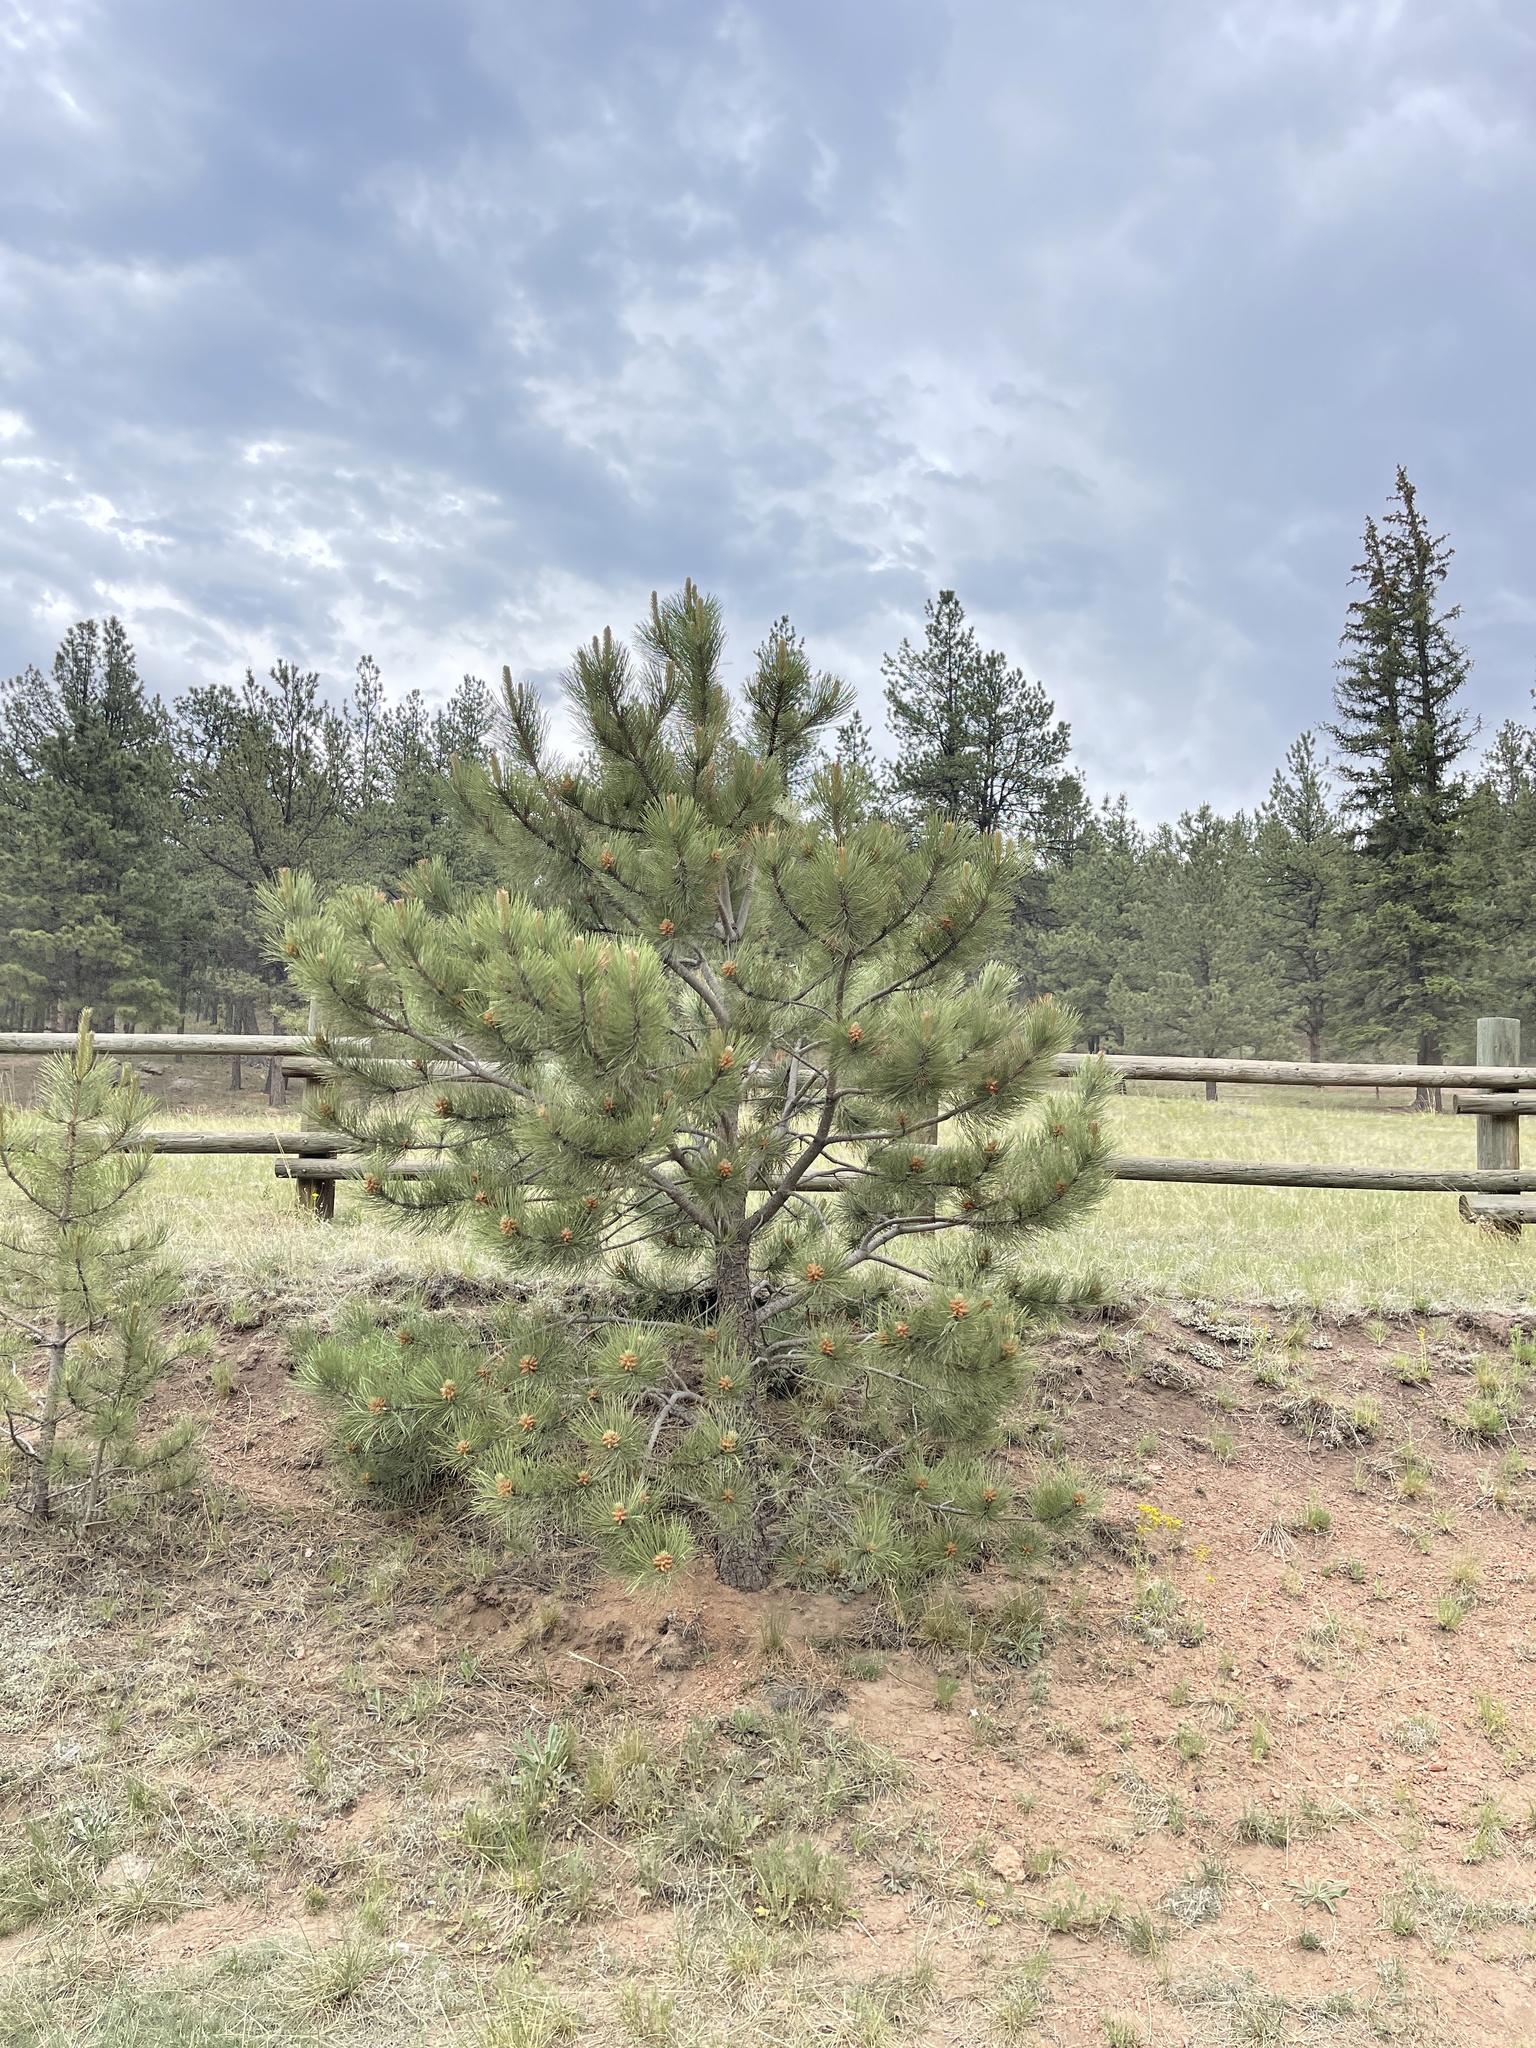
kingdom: Plantae
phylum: Tracheophyta
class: Pinopsida
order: Pinales
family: Pinaceae
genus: Pinus
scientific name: Pinus ponderosa
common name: Western yellow-pine
